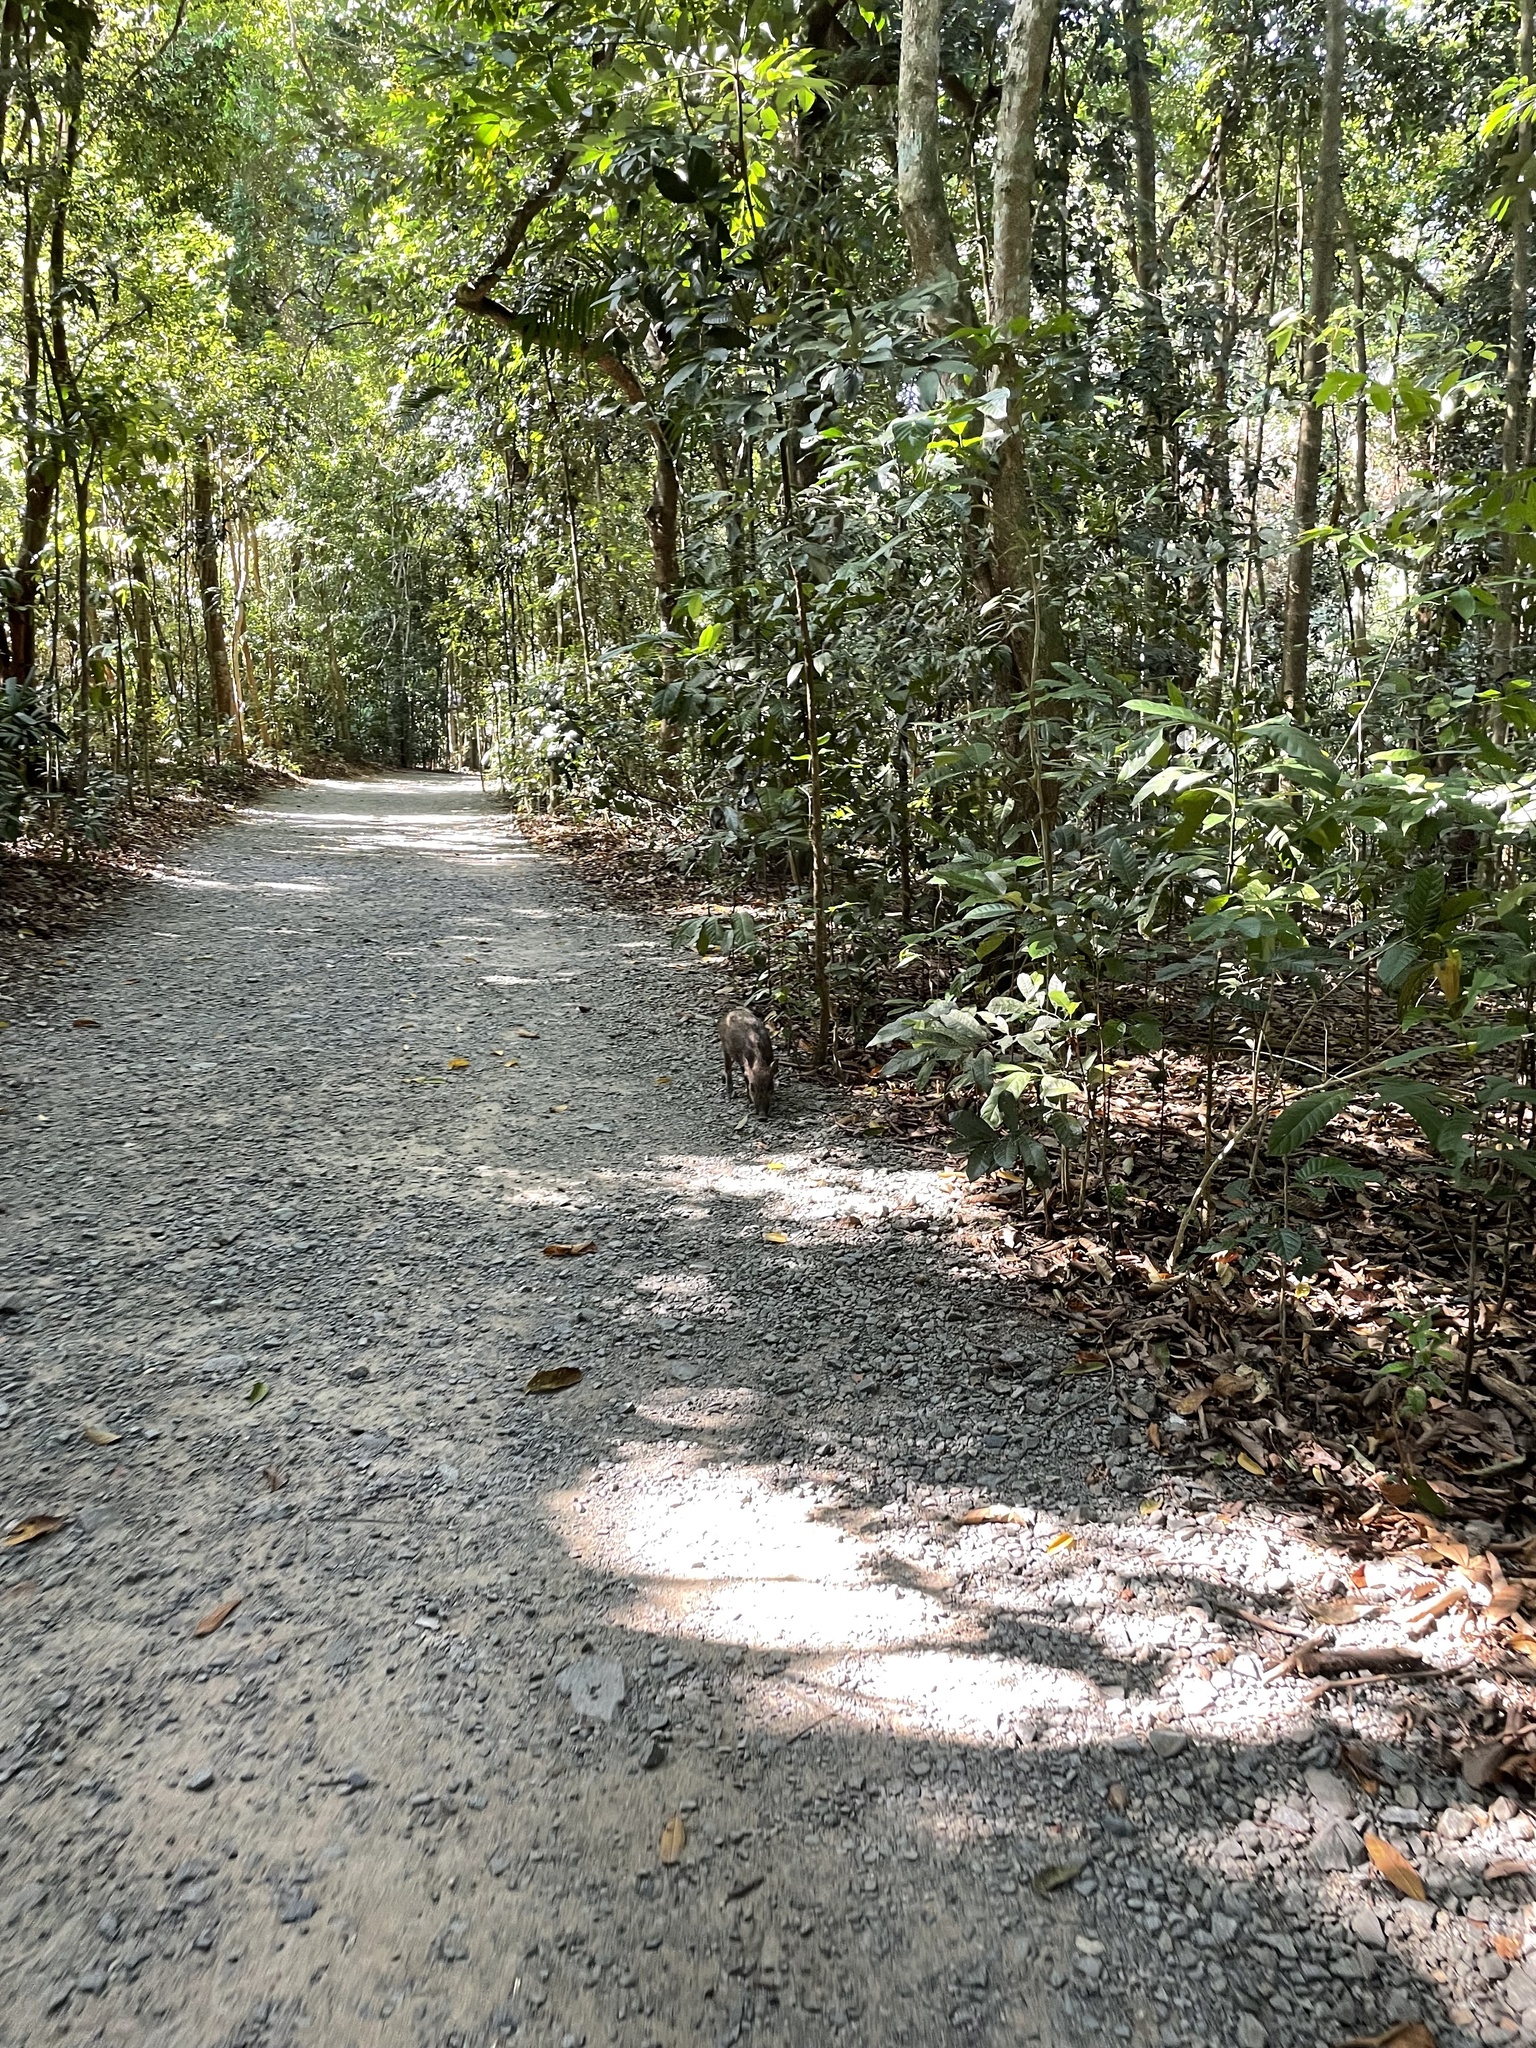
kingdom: Animalia
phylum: Chordata
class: Mammalia
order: Artiodactyla
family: Suidae
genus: Sus
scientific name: Sus scrofa
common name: Wild boar
